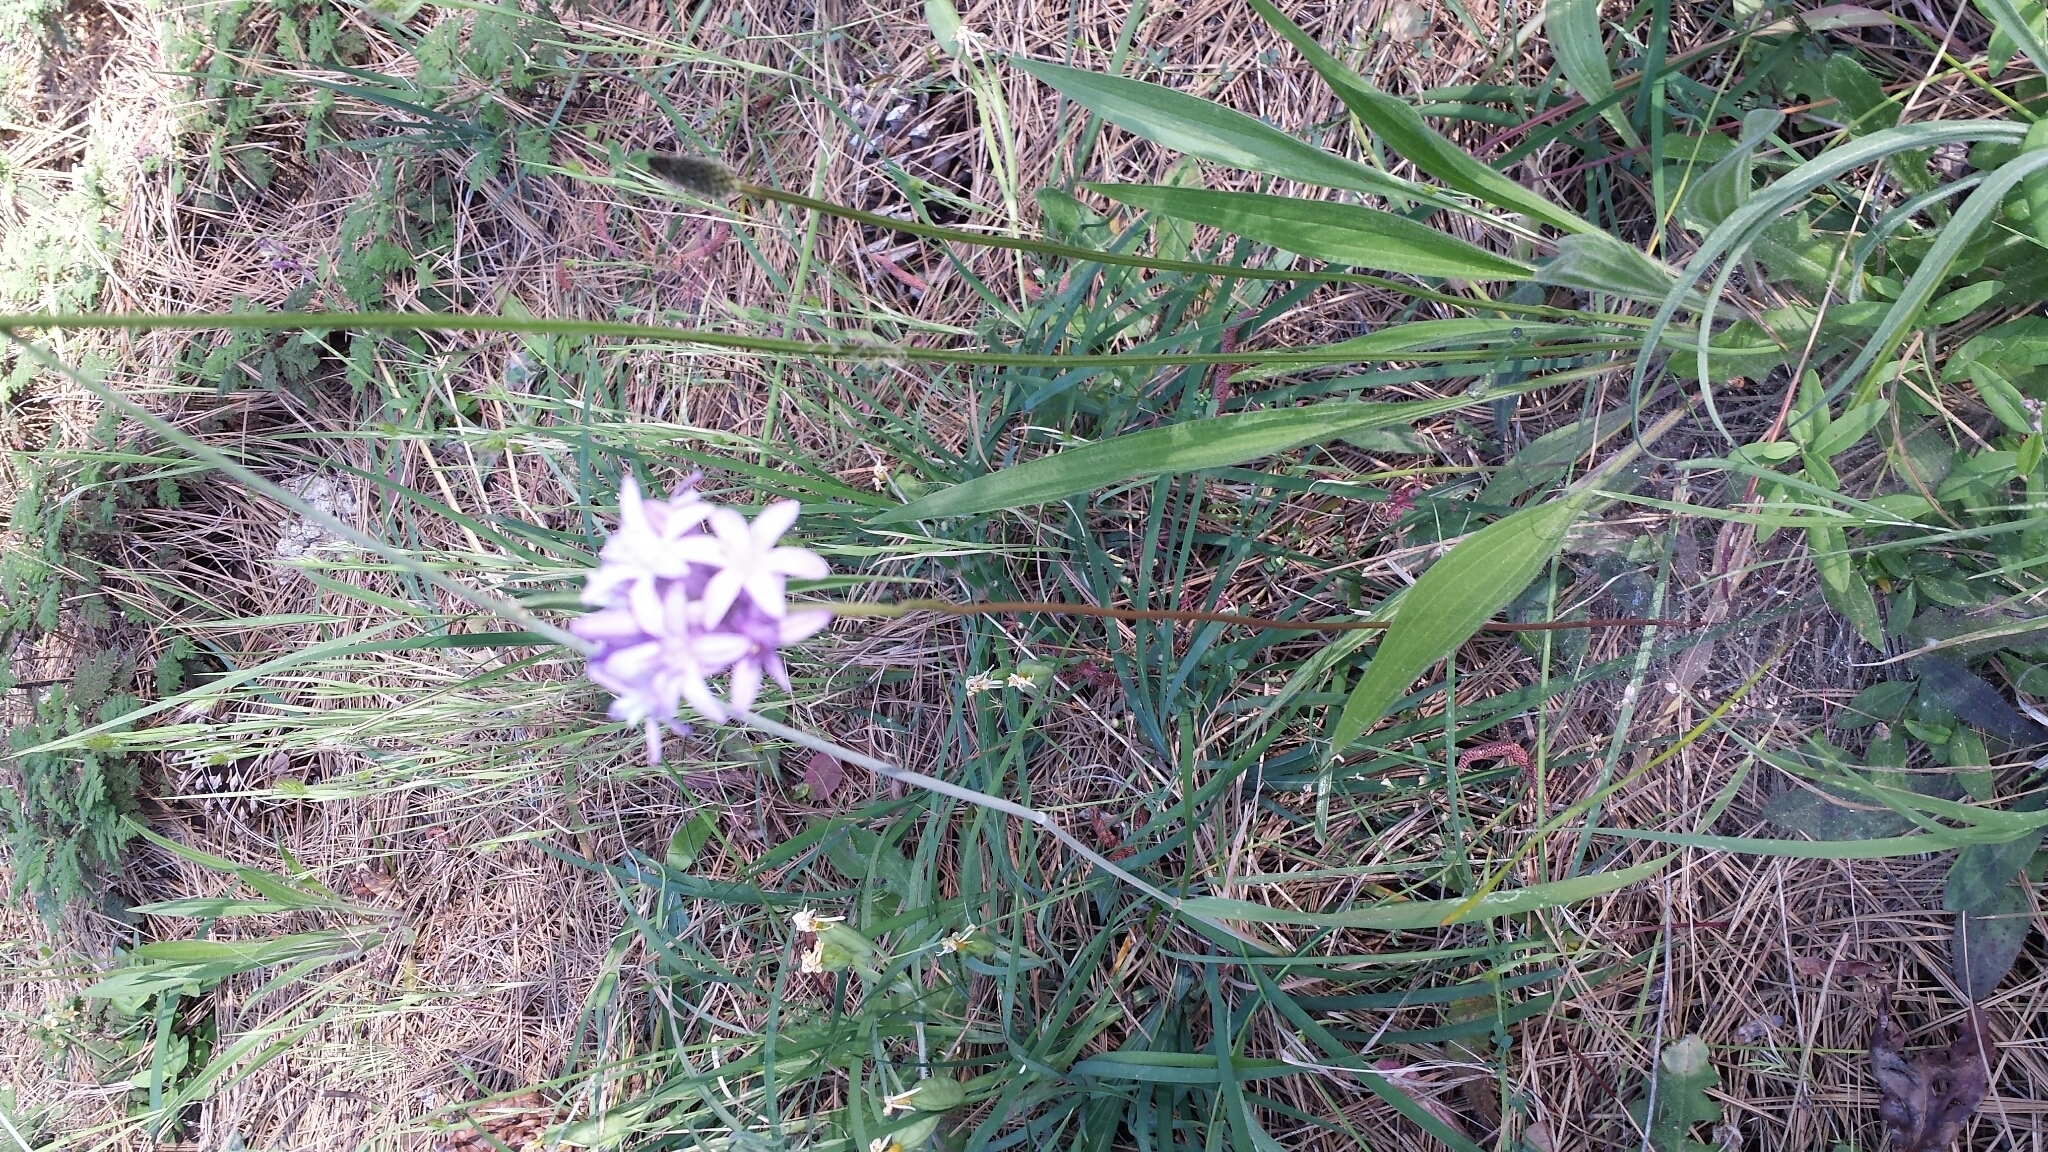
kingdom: Plantae
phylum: Tracheophyta
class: Liliopsida
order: Asparagales
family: Asparagaceae
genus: Dichelostemma
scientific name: Dichelostemma multiflorum
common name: Round-tooth ookow
